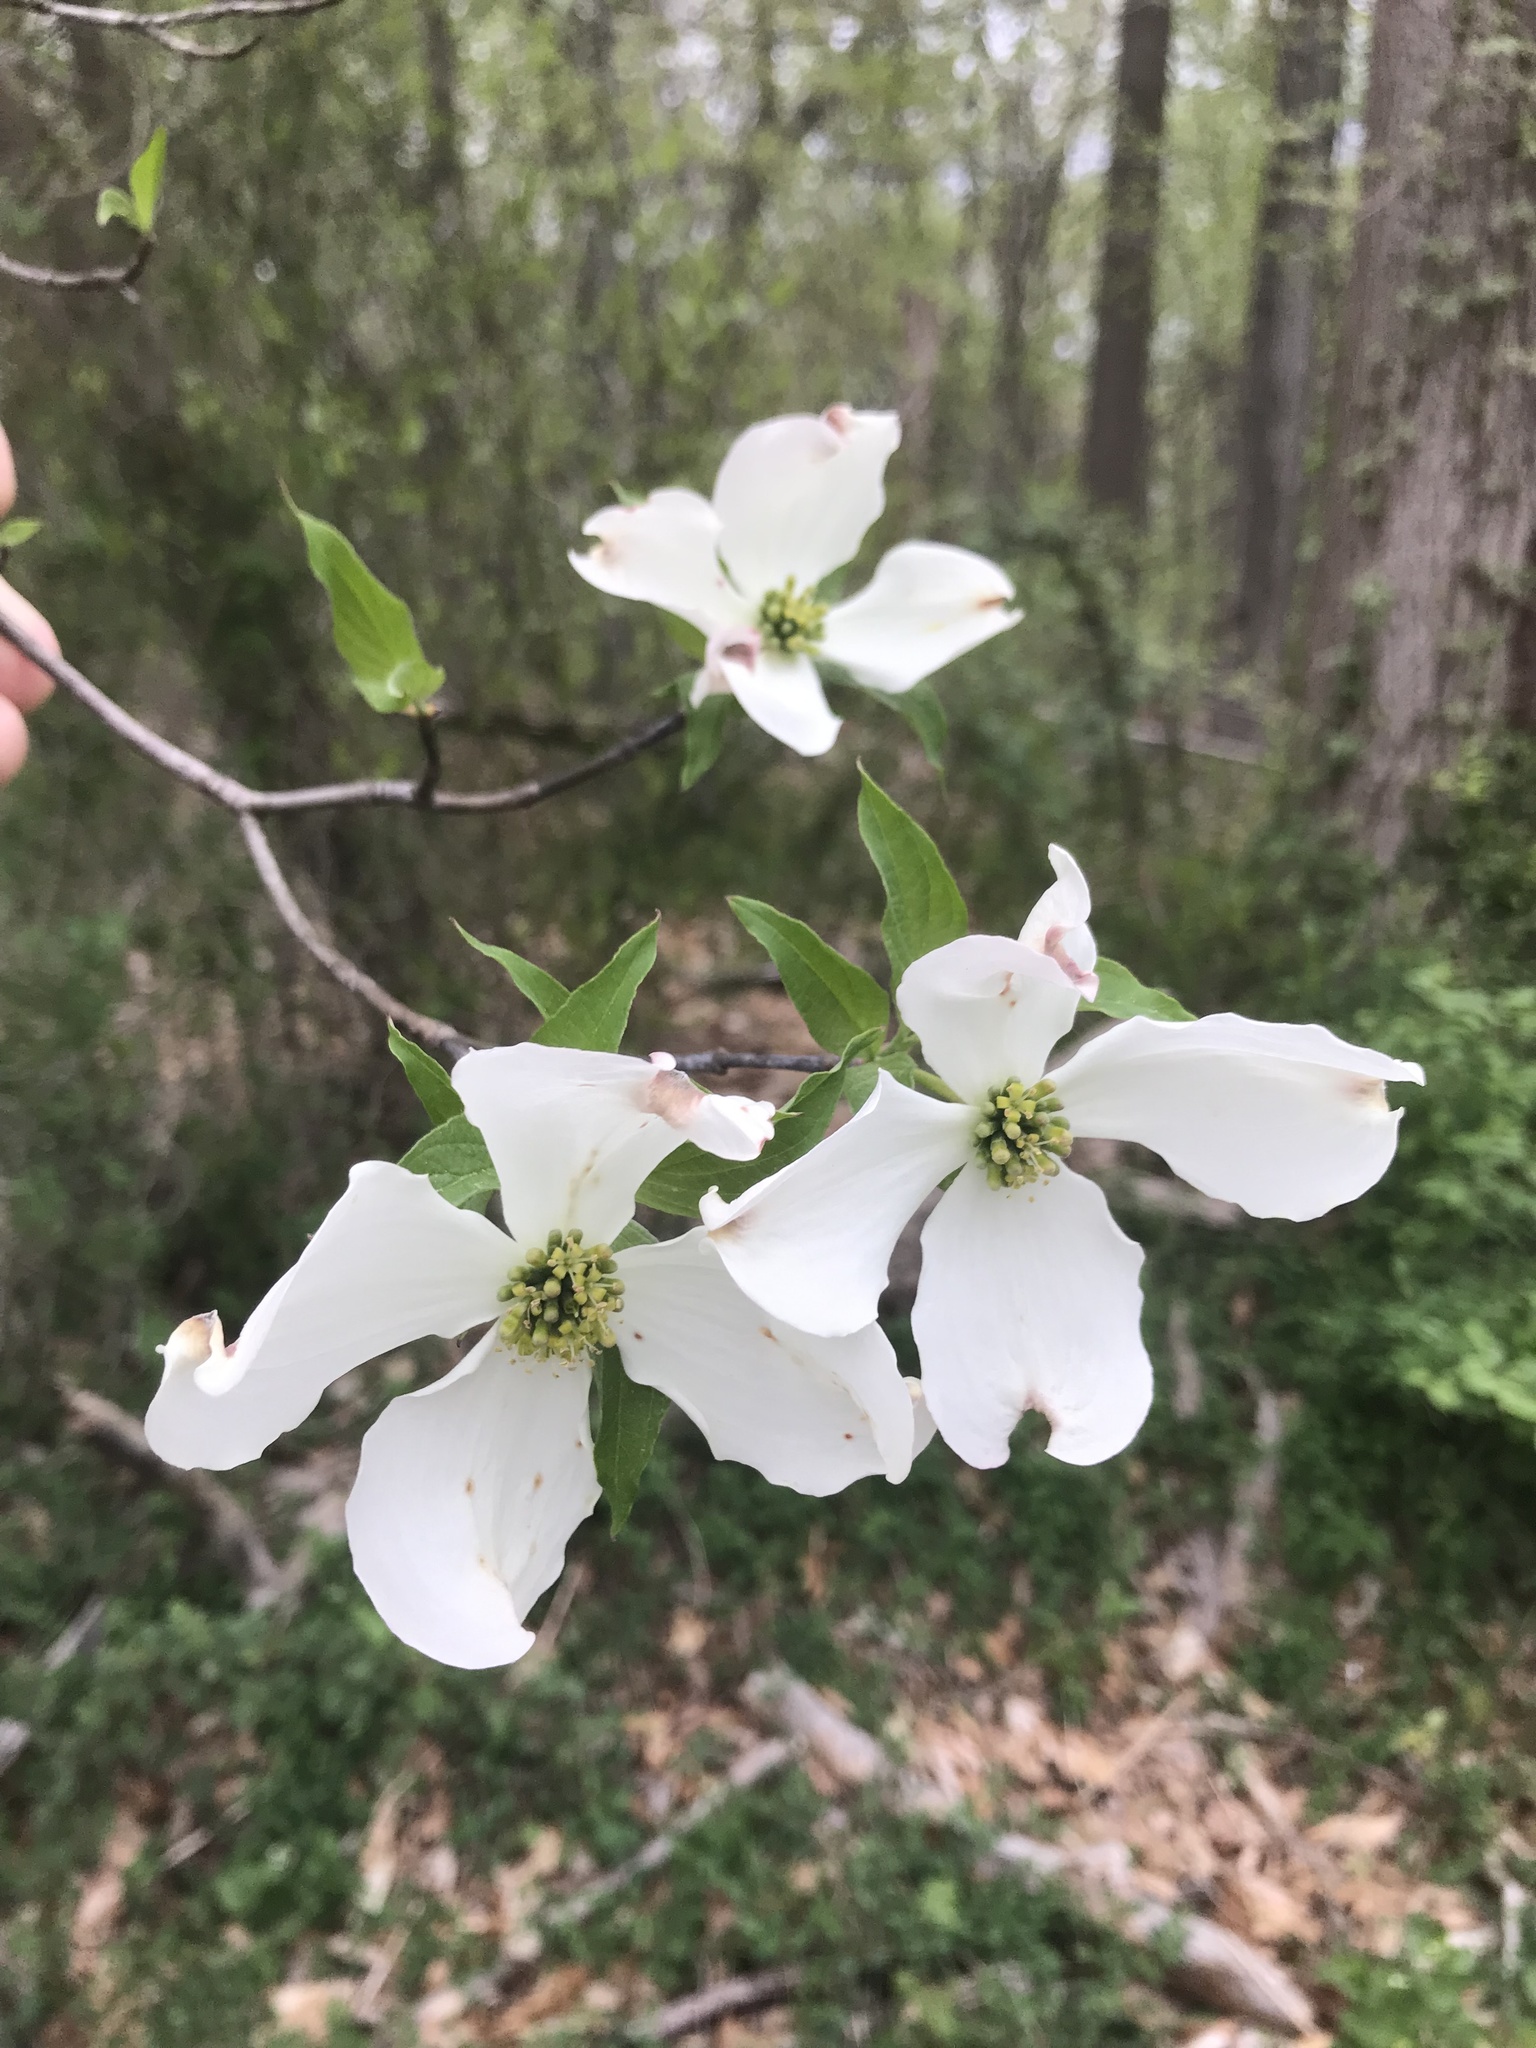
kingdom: Plantae
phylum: Tracheophyta
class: Magnoliopsida
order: Cornales
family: Cornaceae
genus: Cornus
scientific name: Cornus florida
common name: Flowering dogwood
